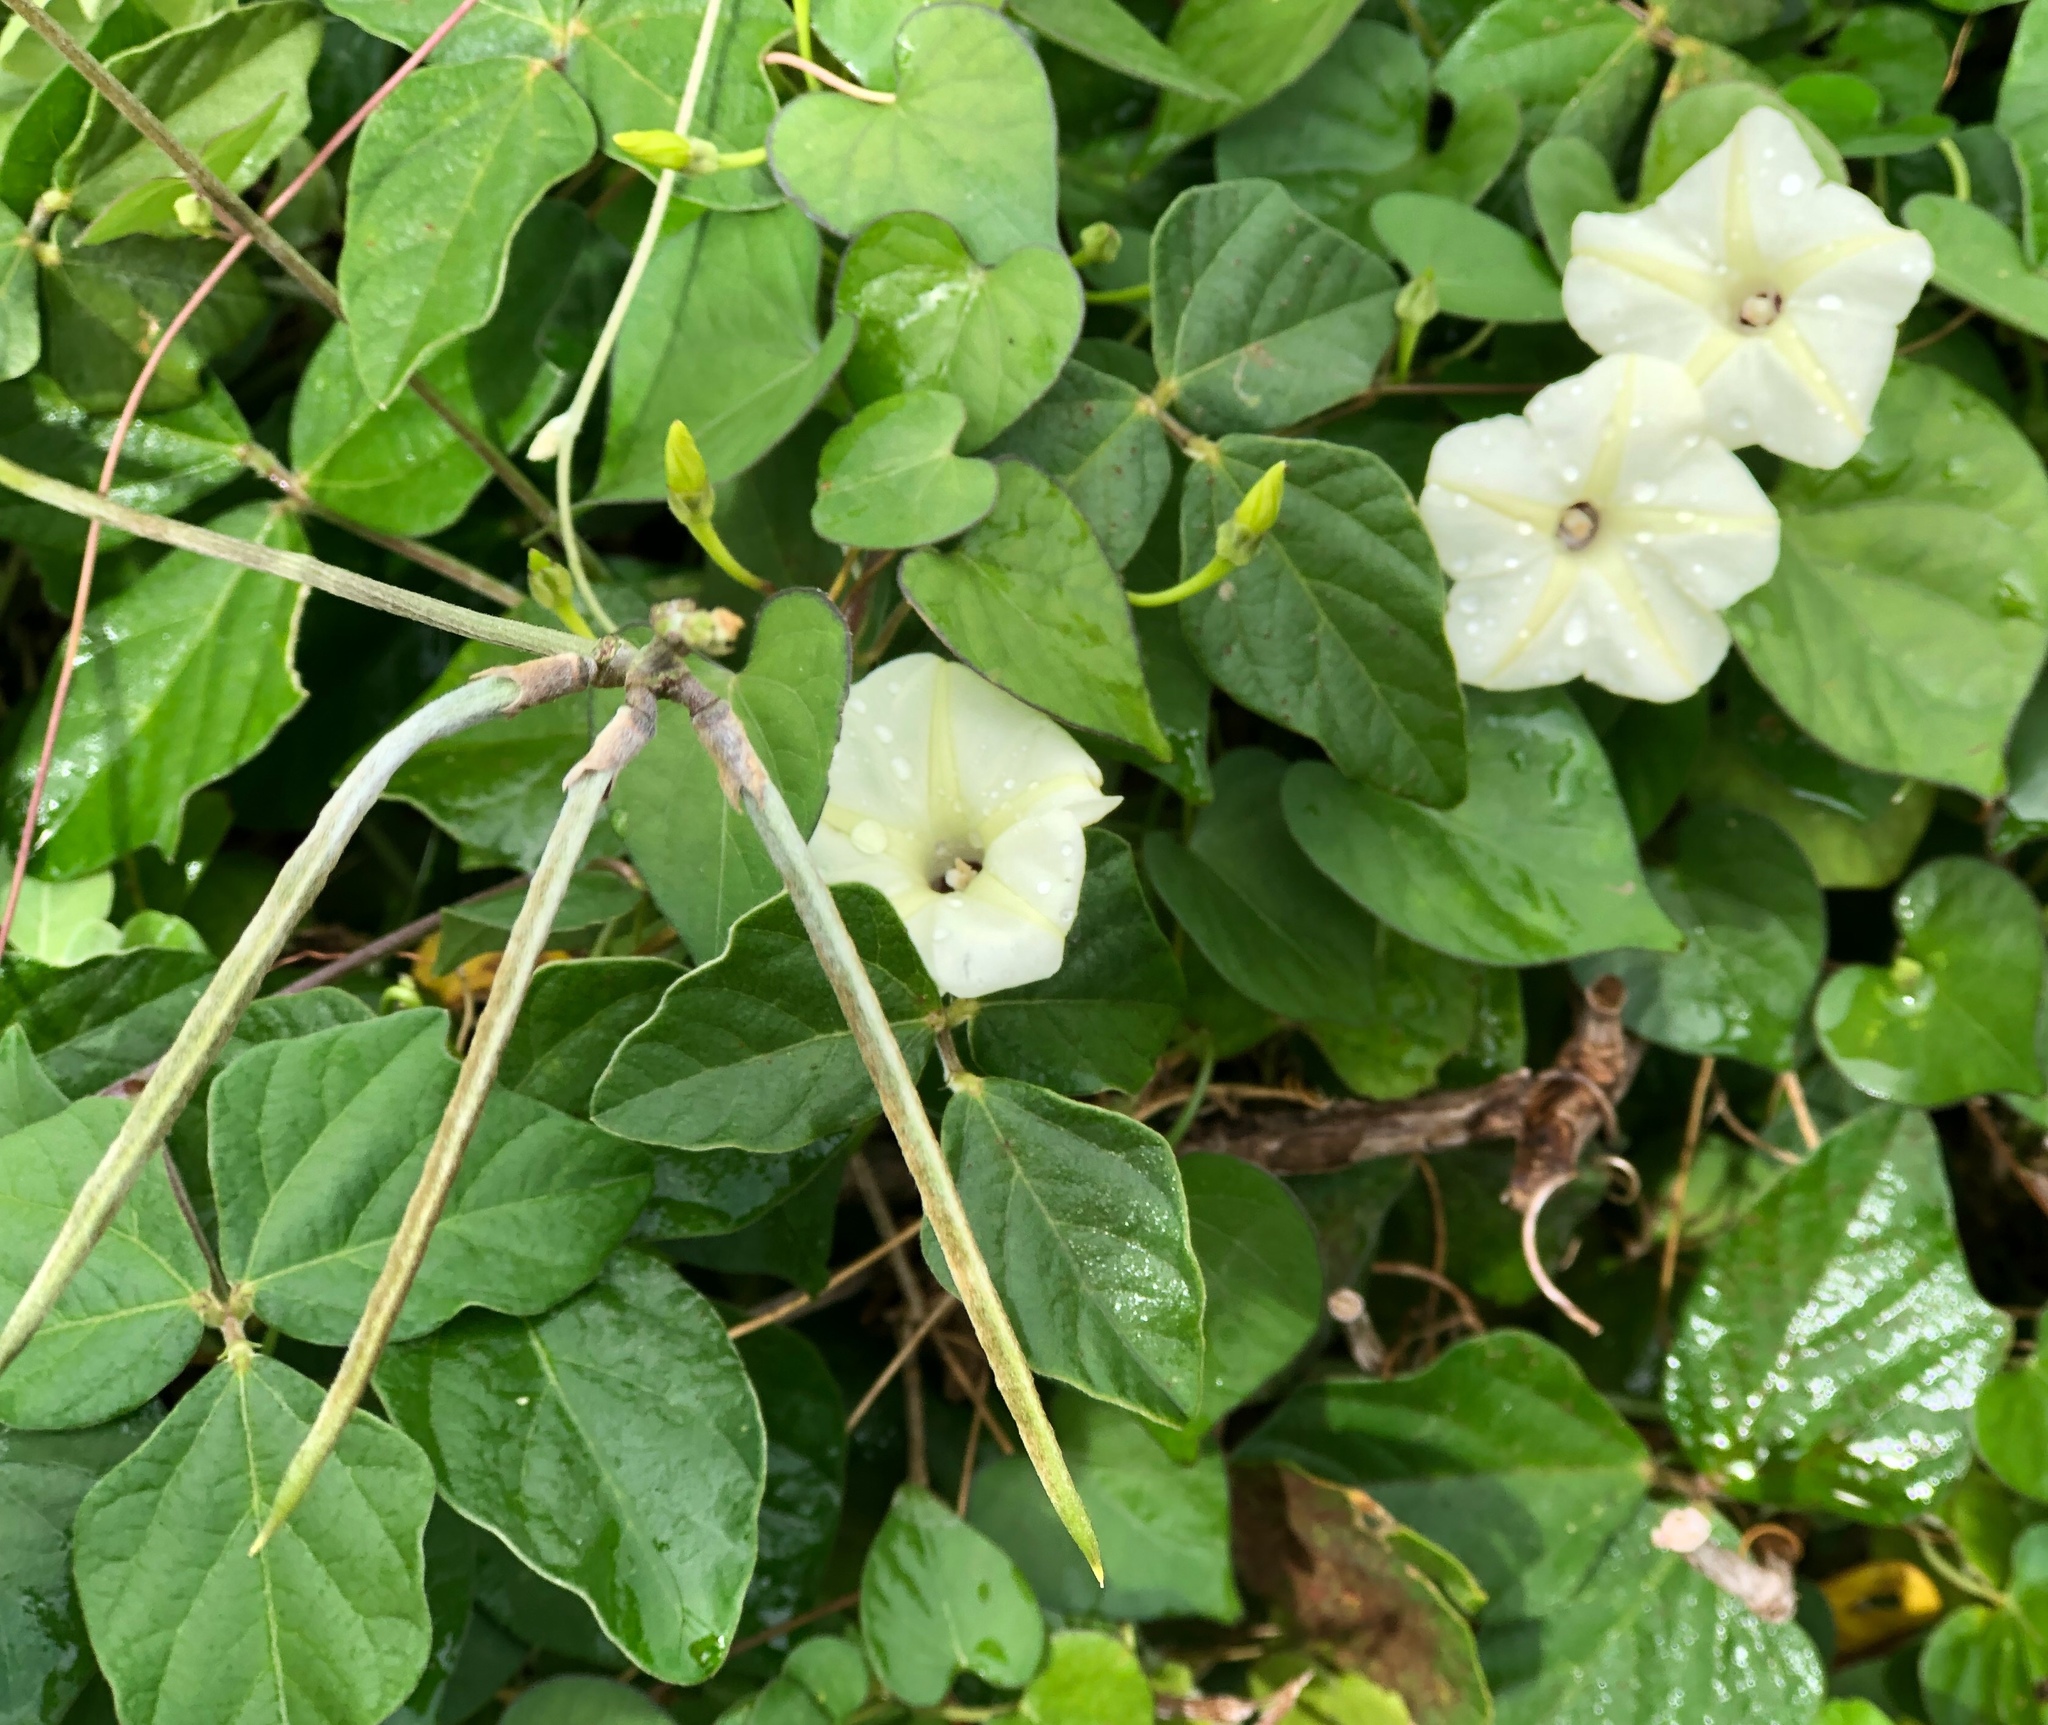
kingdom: Plantae
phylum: Tracheophyta
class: Magnoliopsida
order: Solanales
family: Convolvulaceae
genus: Ipomoea
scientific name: Ipomoea obscura
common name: Obscure morning-glory
